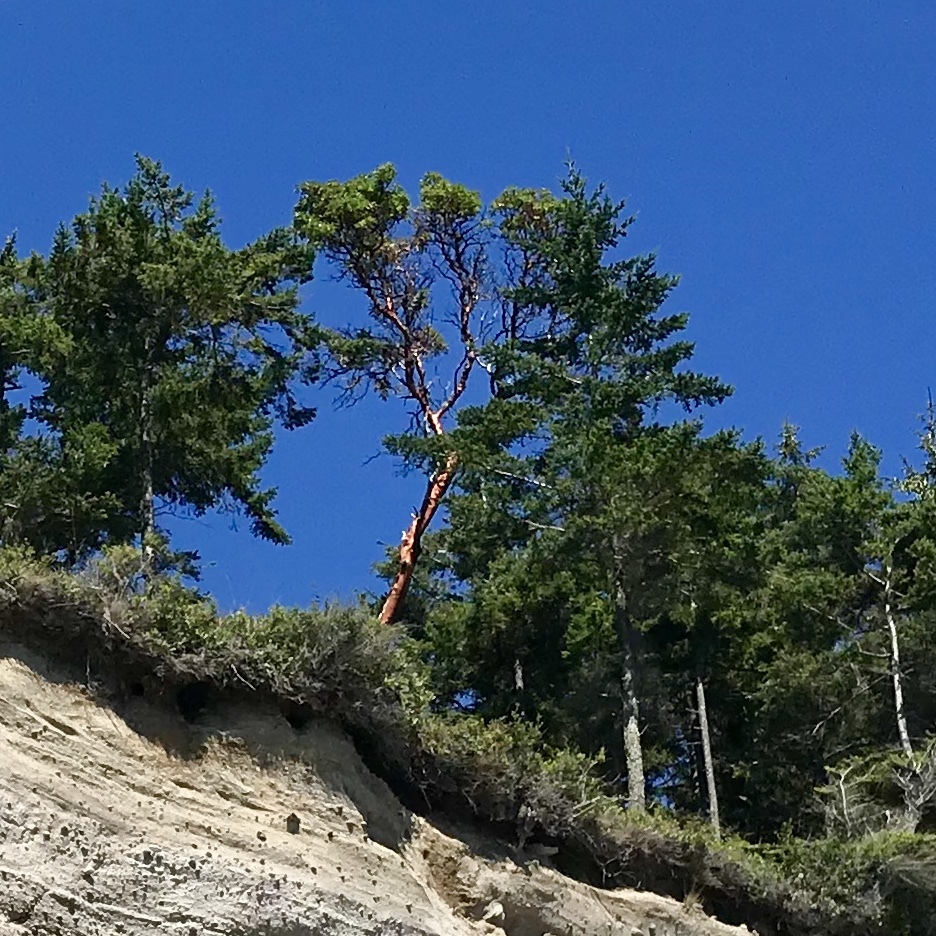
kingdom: Plantae
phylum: Tracheophyta
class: Magnoliopsida
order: Ericales
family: Ericaceae
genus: Arbutus
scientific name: Arbutus menziesii
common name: Pacific madrone
